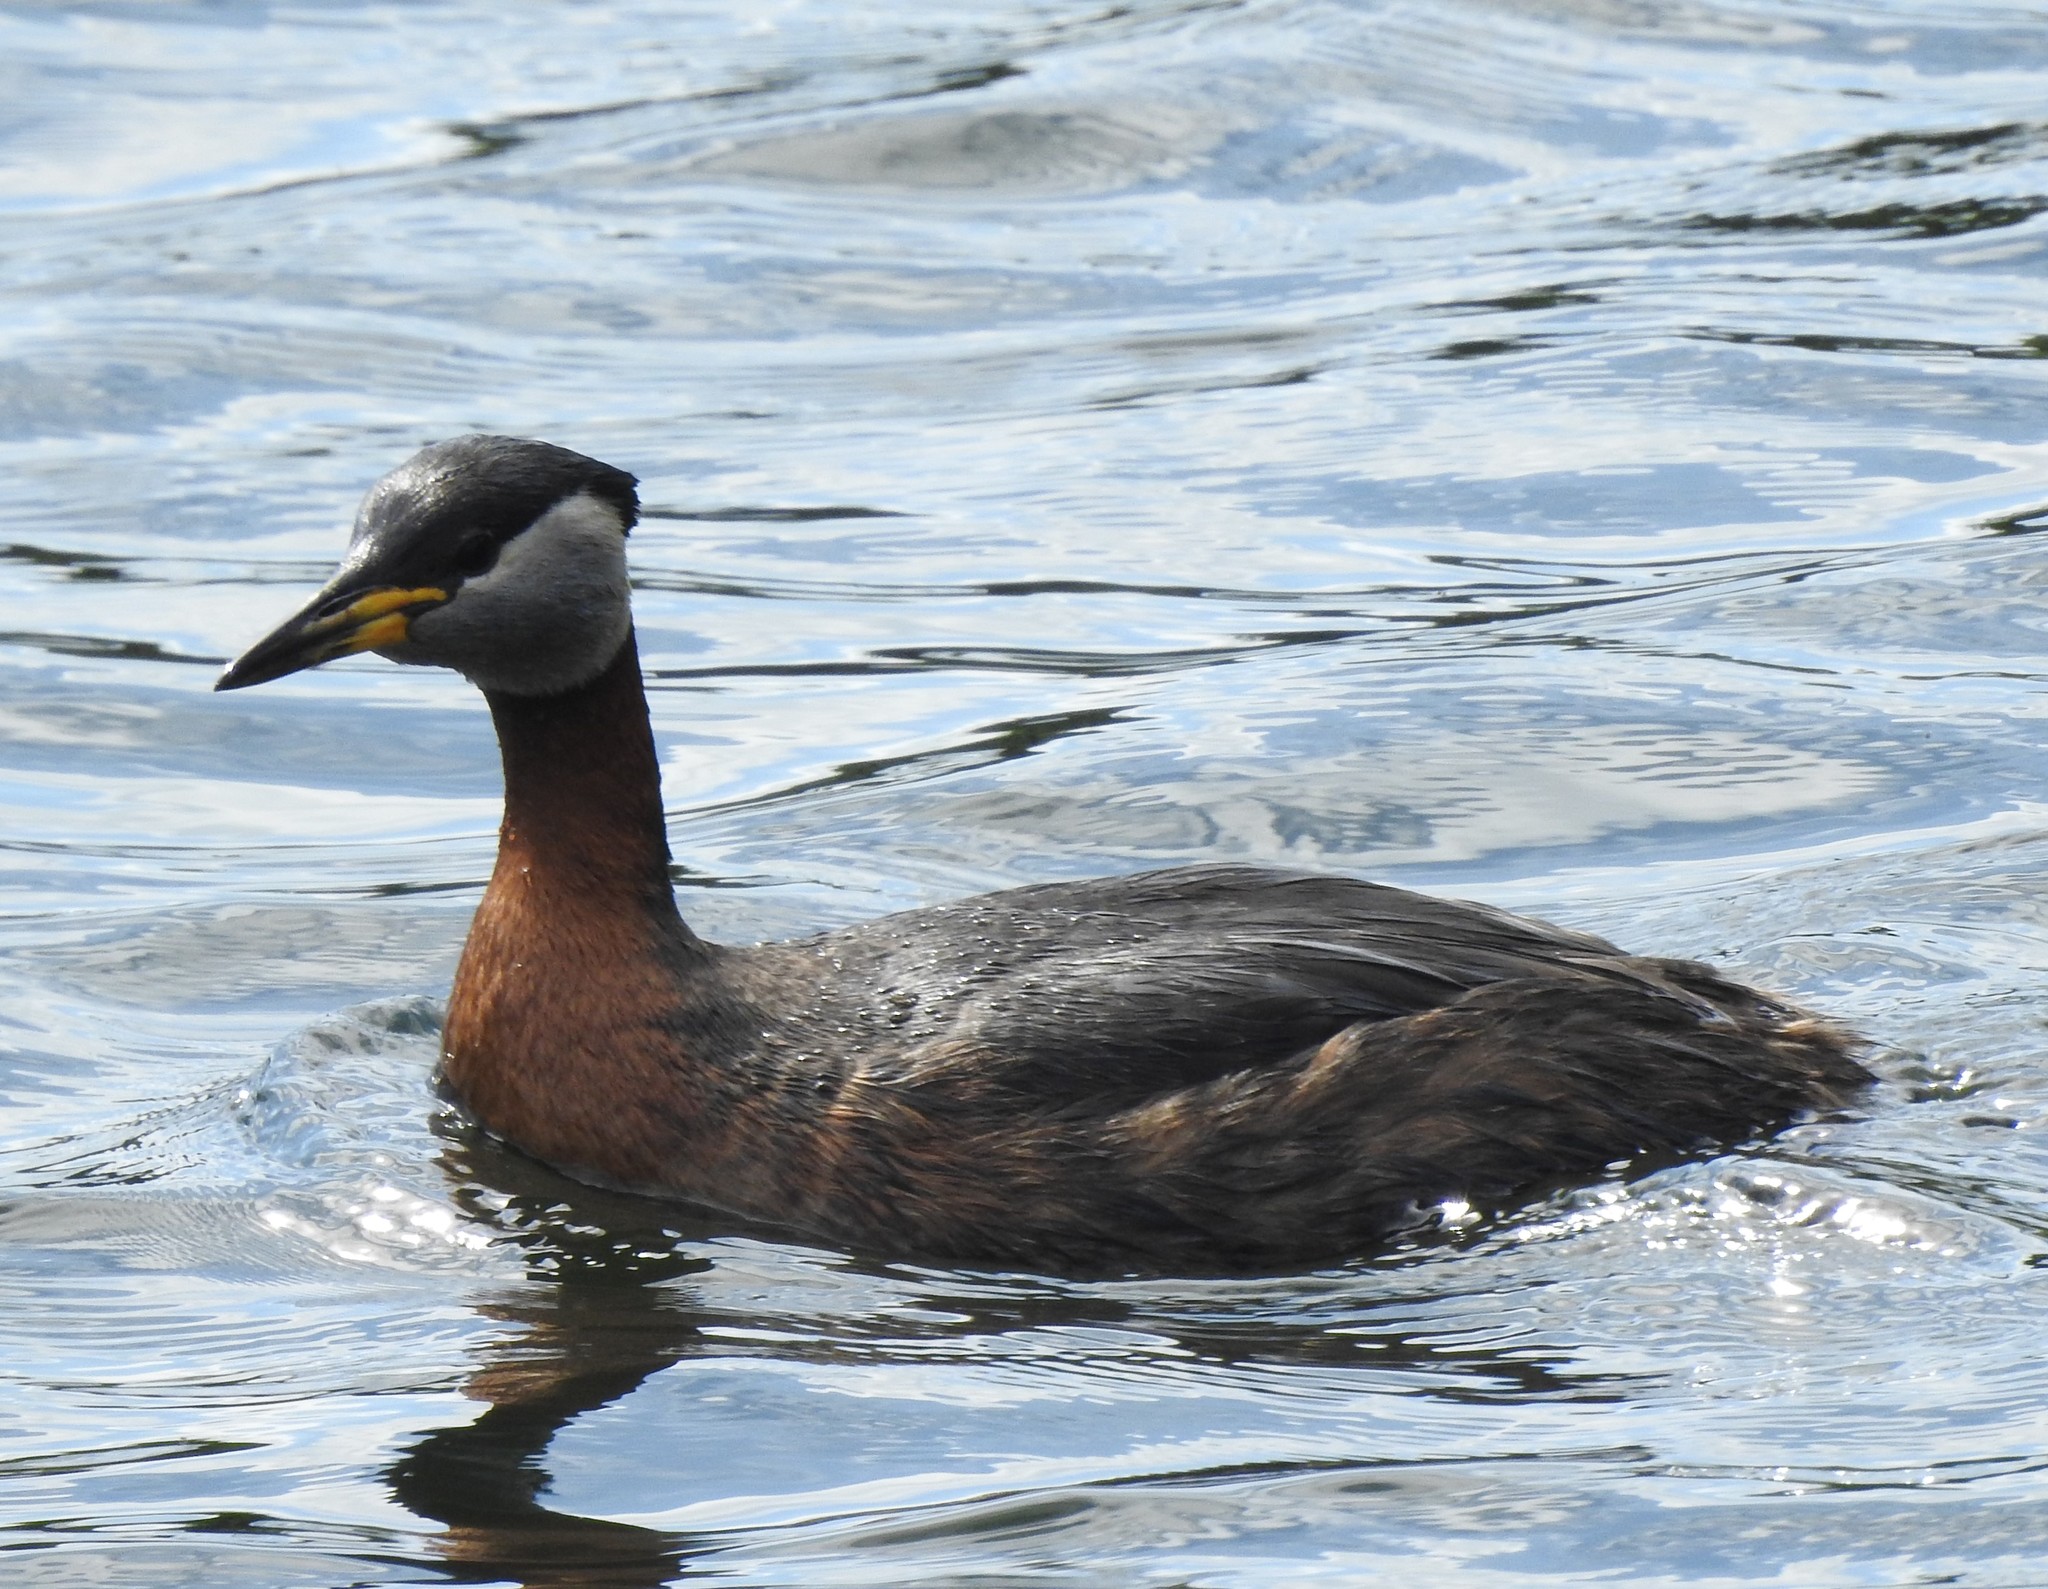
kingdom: Animalia
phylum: Chordata
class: Aves
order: Podicipediformes
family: Podicipedidae
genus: Podiceps
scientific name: Podiceps grisegena
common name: Red-necked grebe
